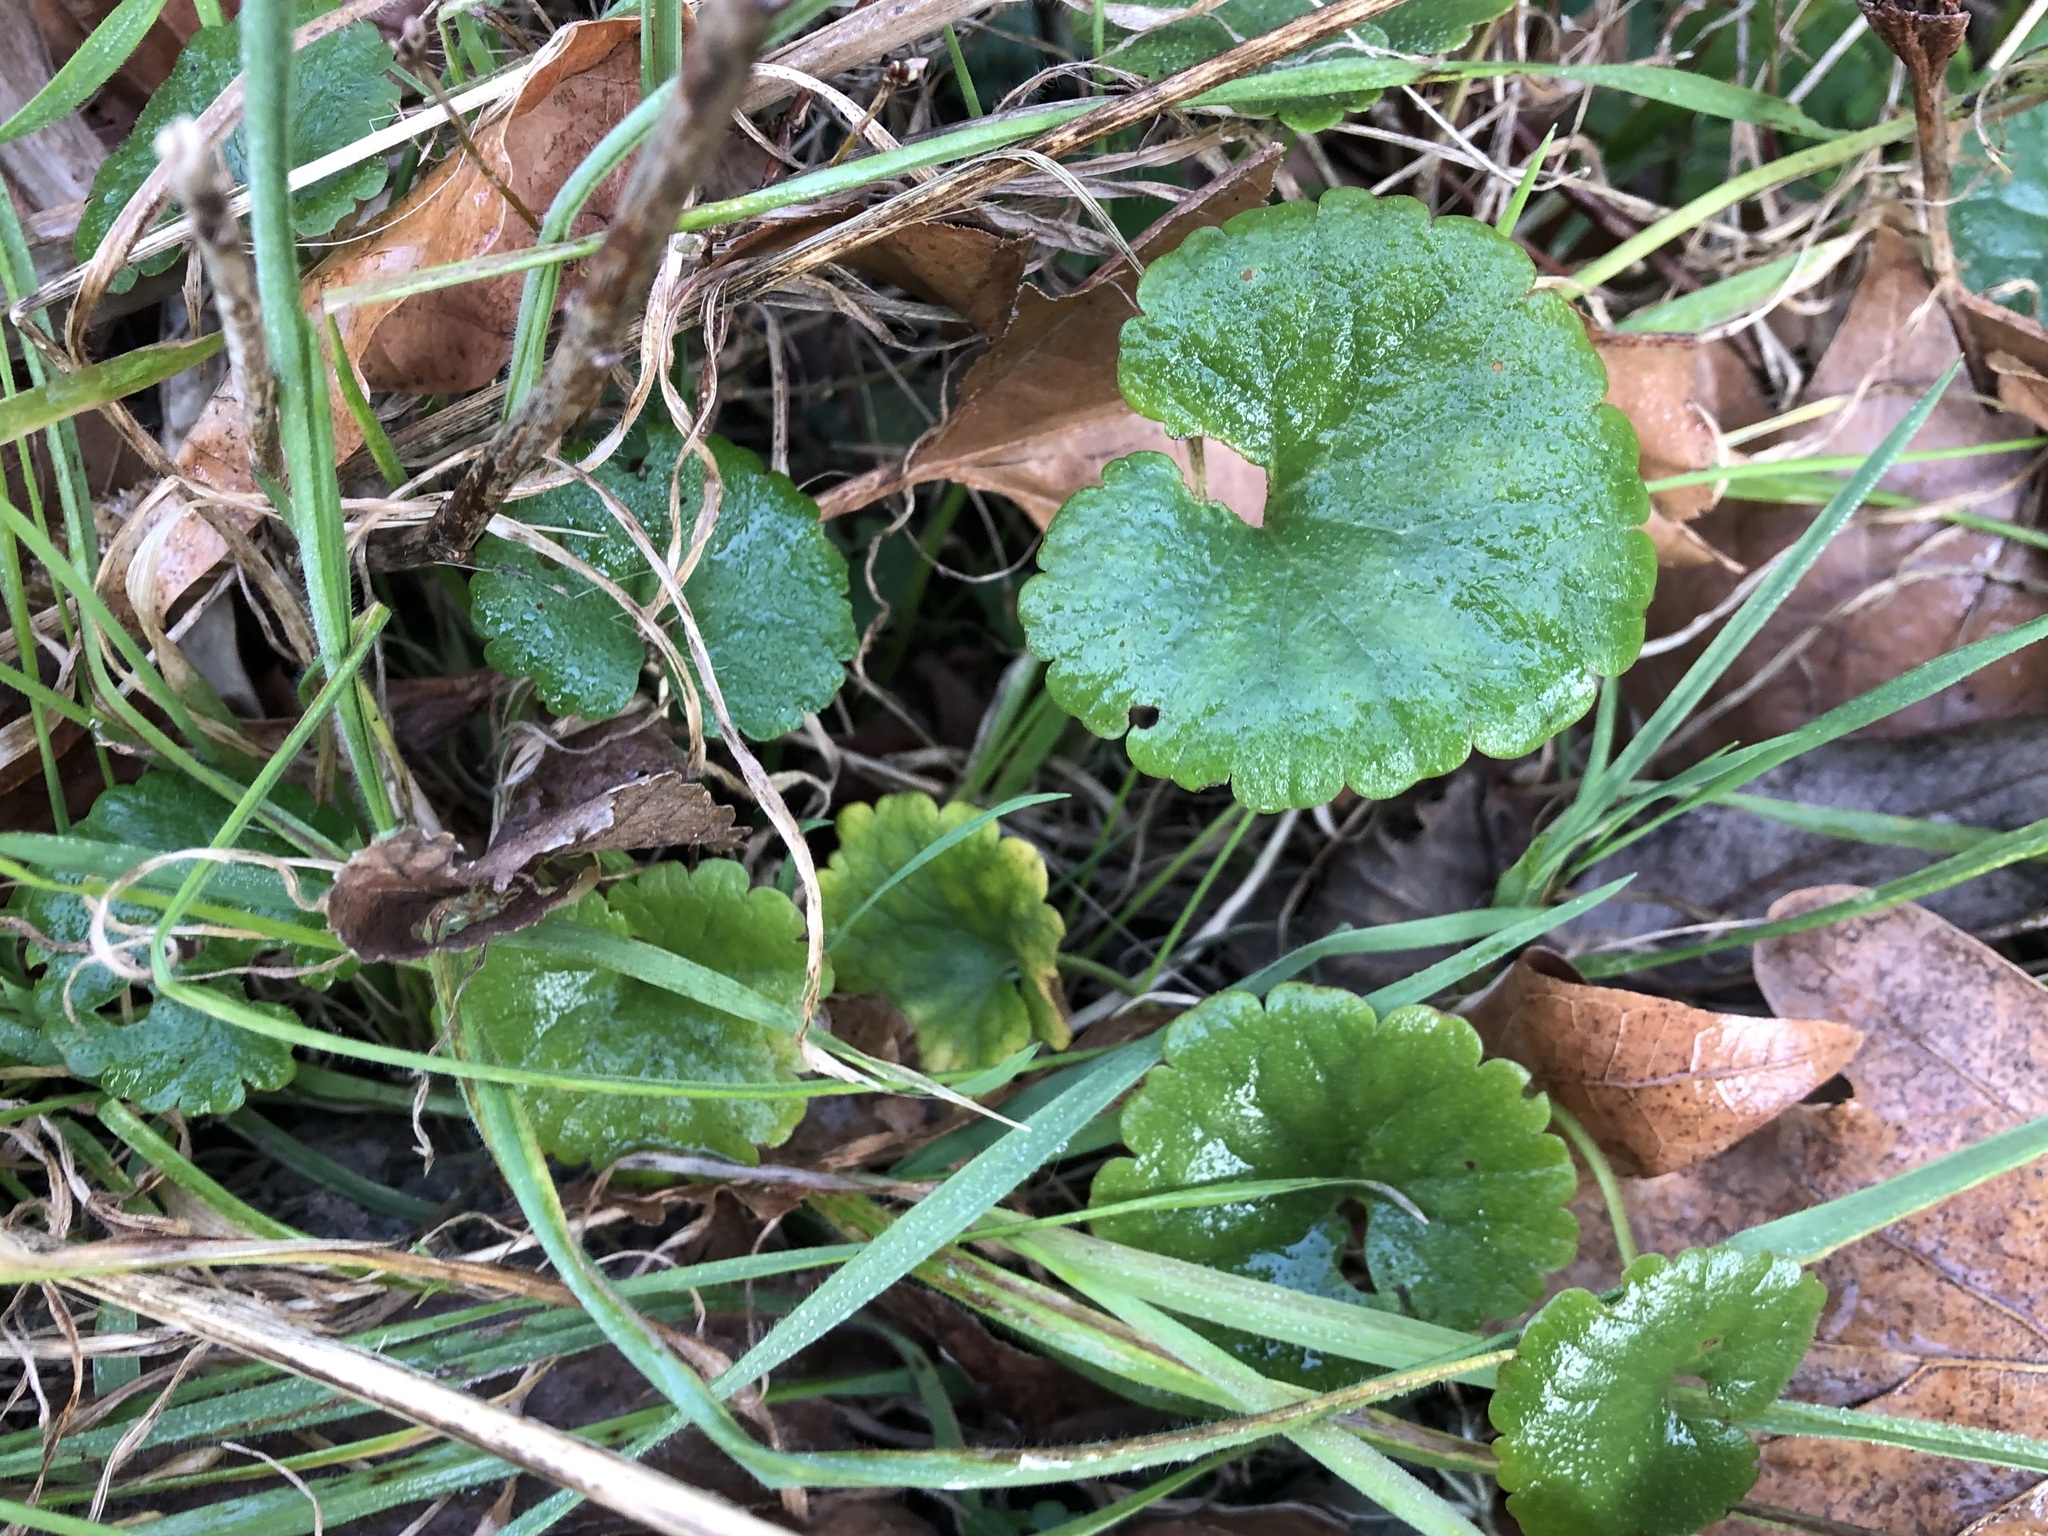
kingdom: Plantae
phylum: Tracheophyta
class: Magnoliopsida
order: Lamiales
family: Lamiaceae
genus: Glechoma
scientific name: Glechoma hederacea
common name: Ground ivy
